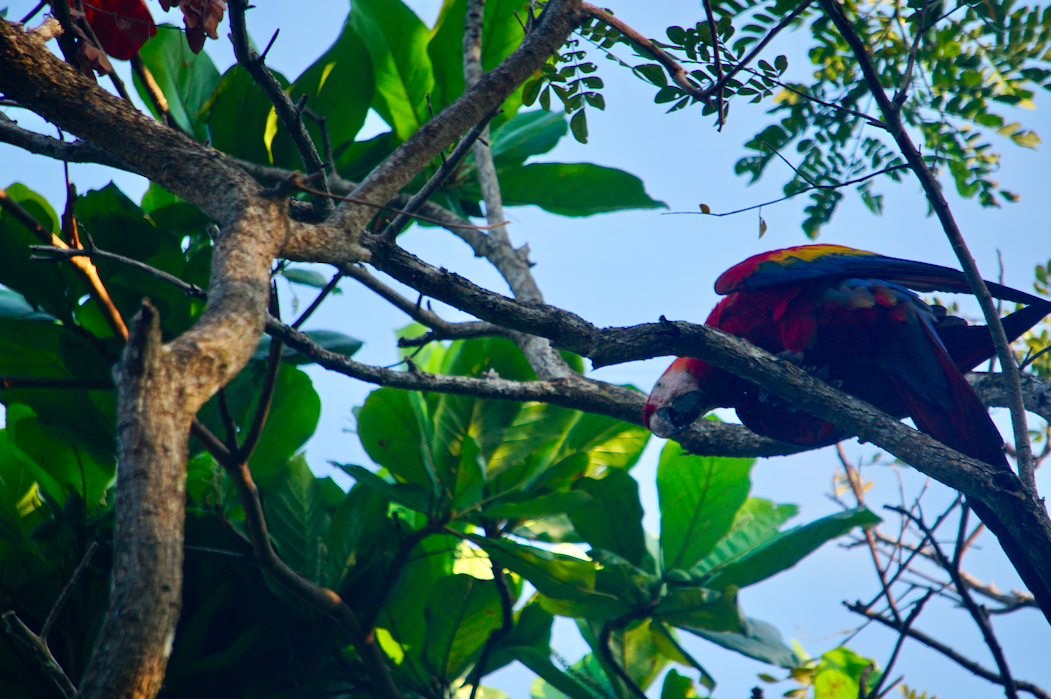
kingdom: Animalia
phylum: Chordata
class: Aves
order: Psittaciformes
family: Psittacidae
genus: Ara
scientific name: Ara macao
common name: Scarlet macaw
